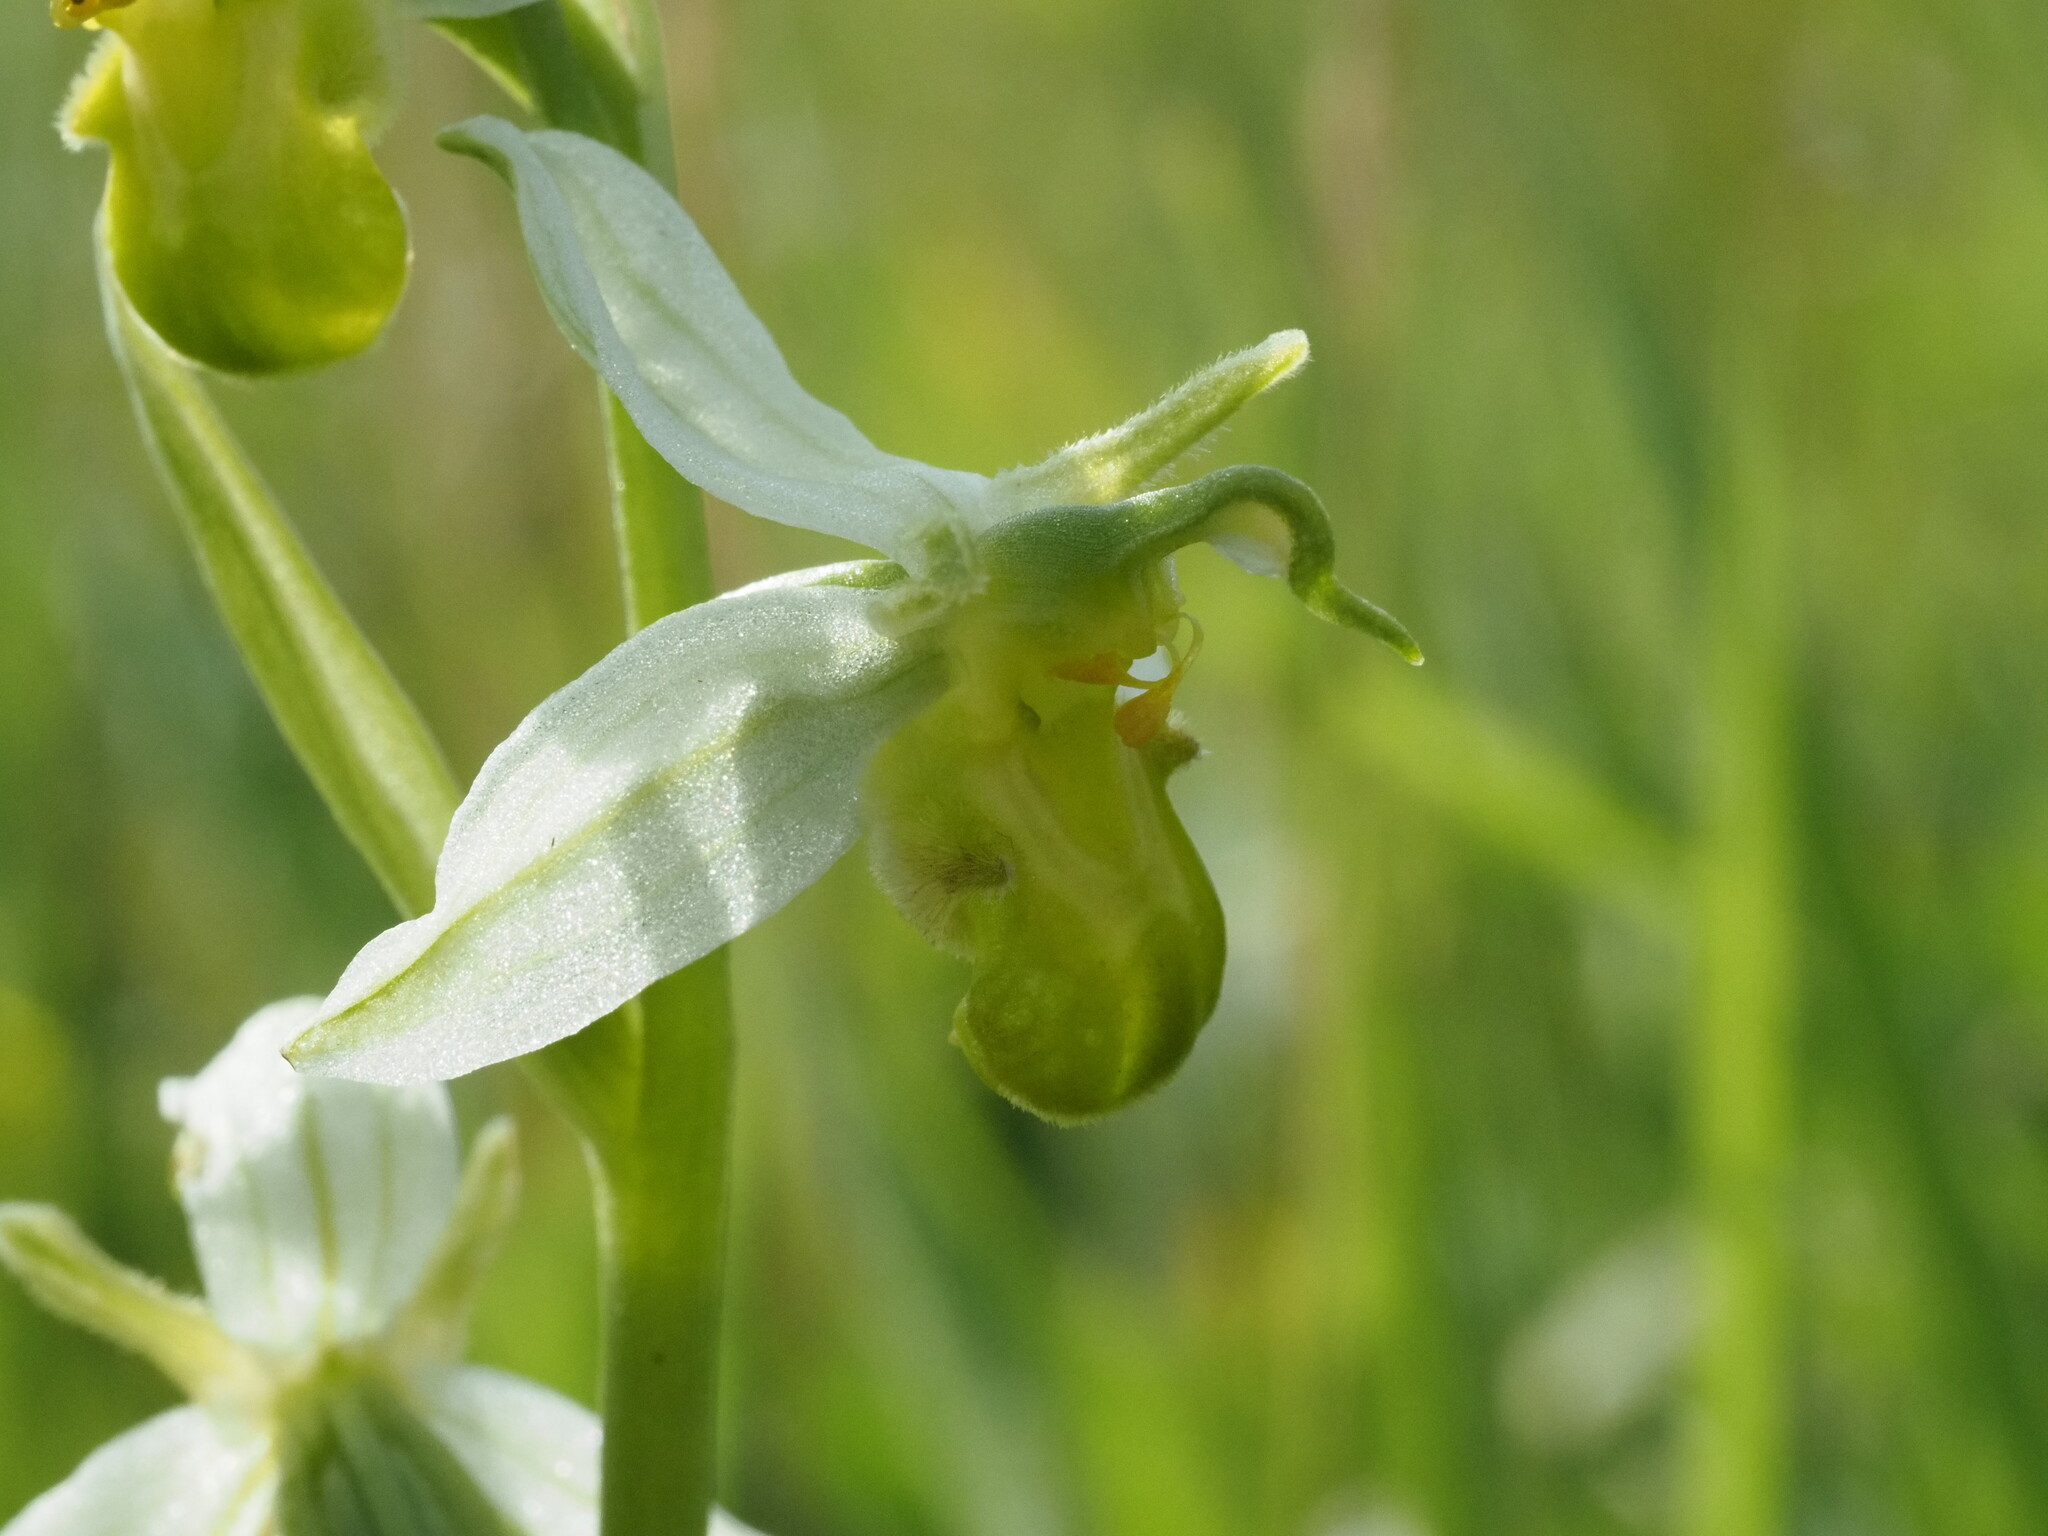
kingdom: Plantae
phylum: Tracheophyta
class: Liliopsida
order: Asparagales
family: Orchidaceae
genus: Ophrys
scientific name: Ophrys apifera
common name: Bee orchid
